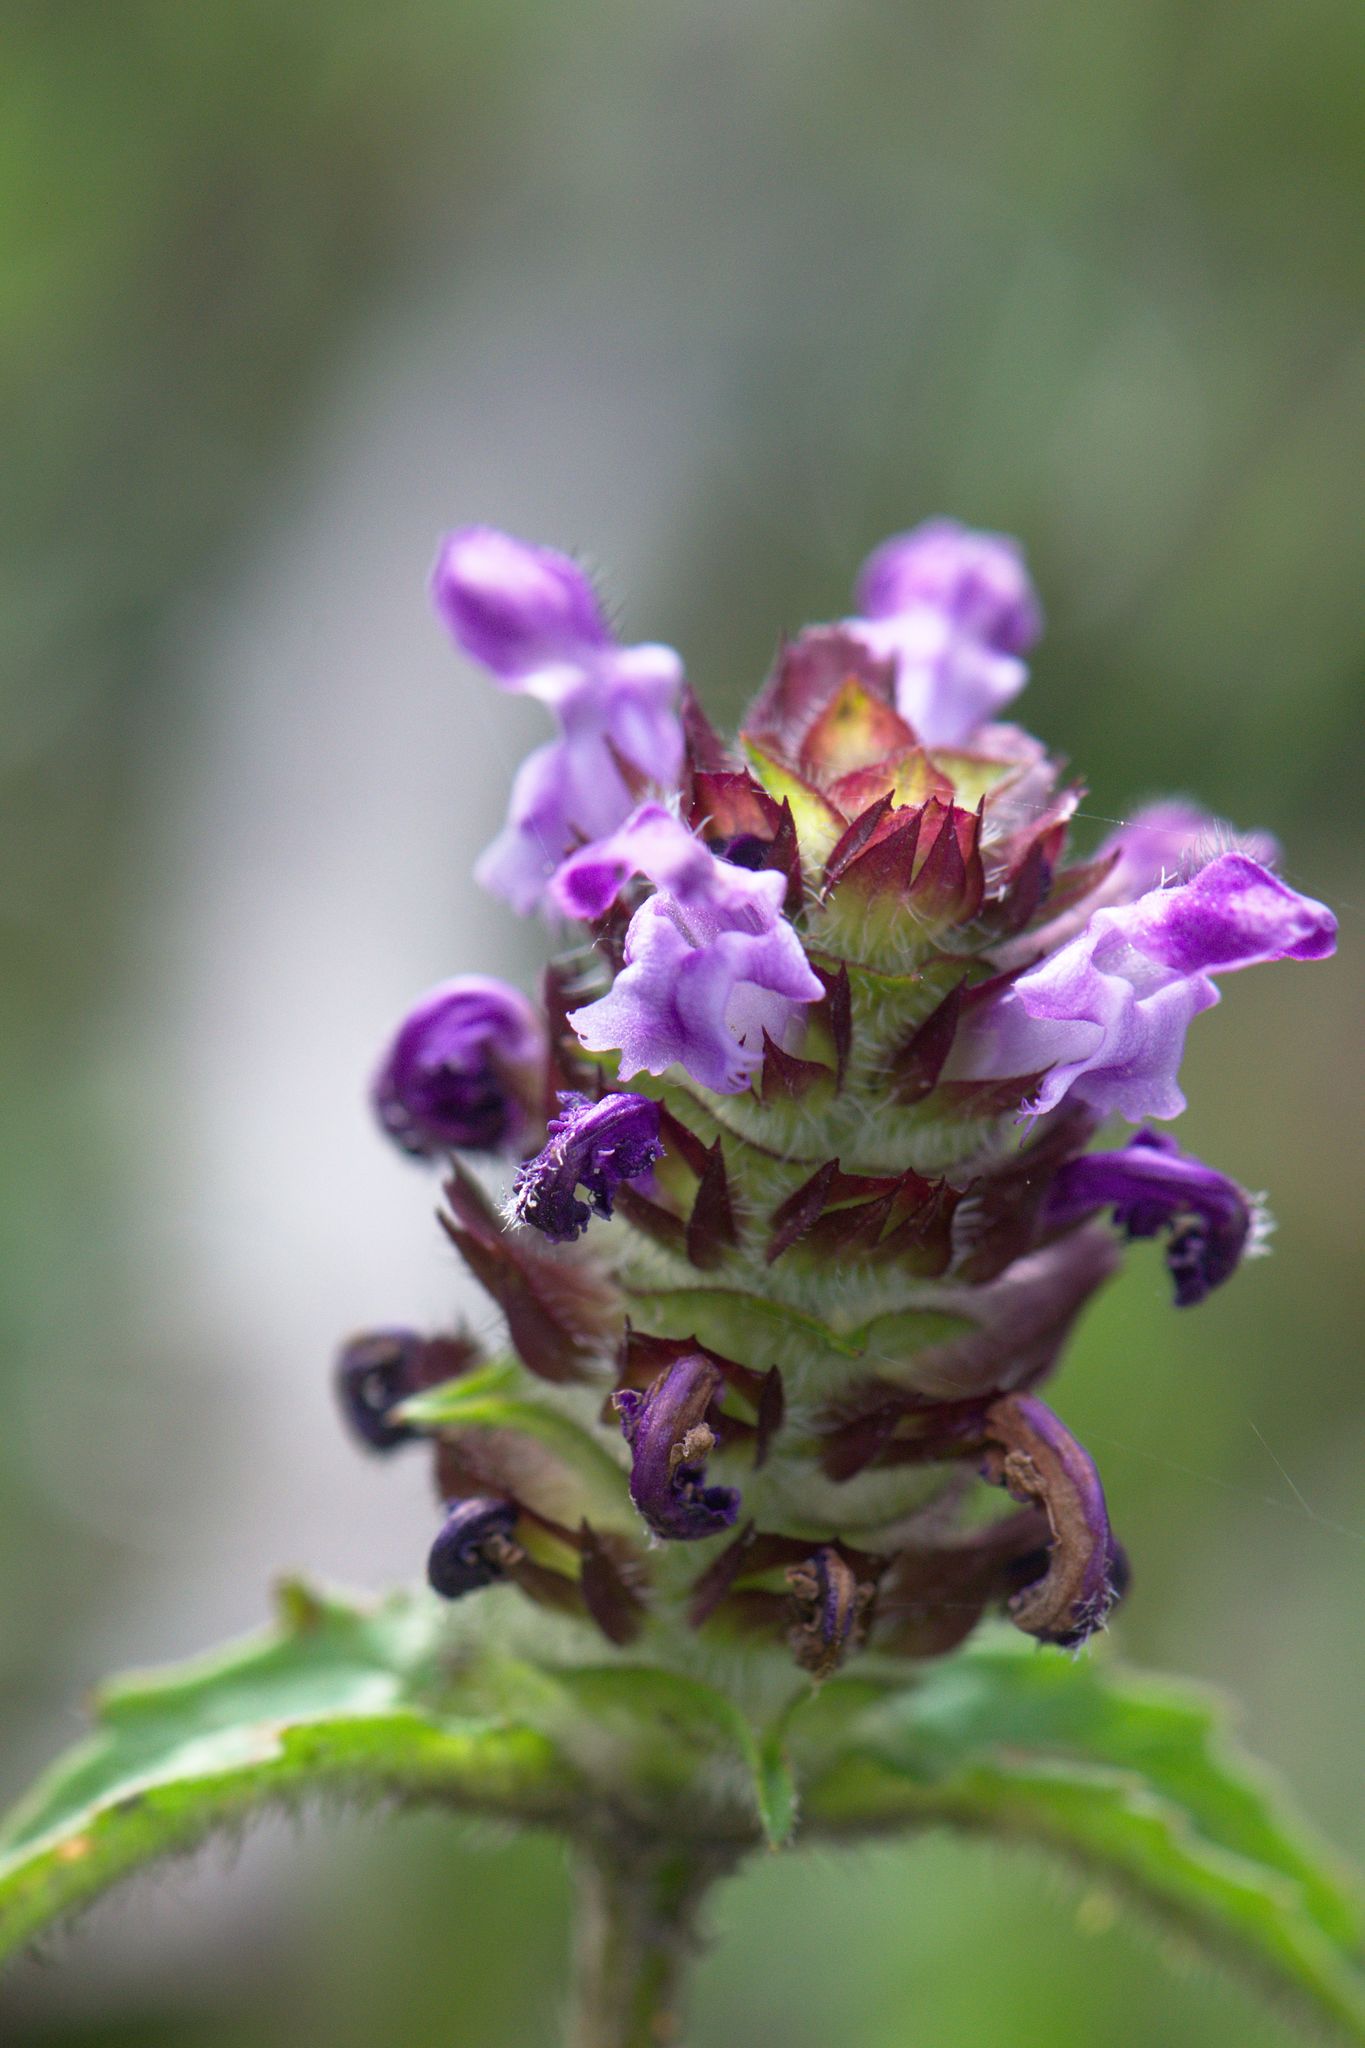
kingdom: Plantae
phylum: Tracheophyta
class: Magnoliopsida
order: Lamiales
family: Lamiaceae
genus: Prunella
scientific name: Prunella vulgaris
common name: Heal-all
